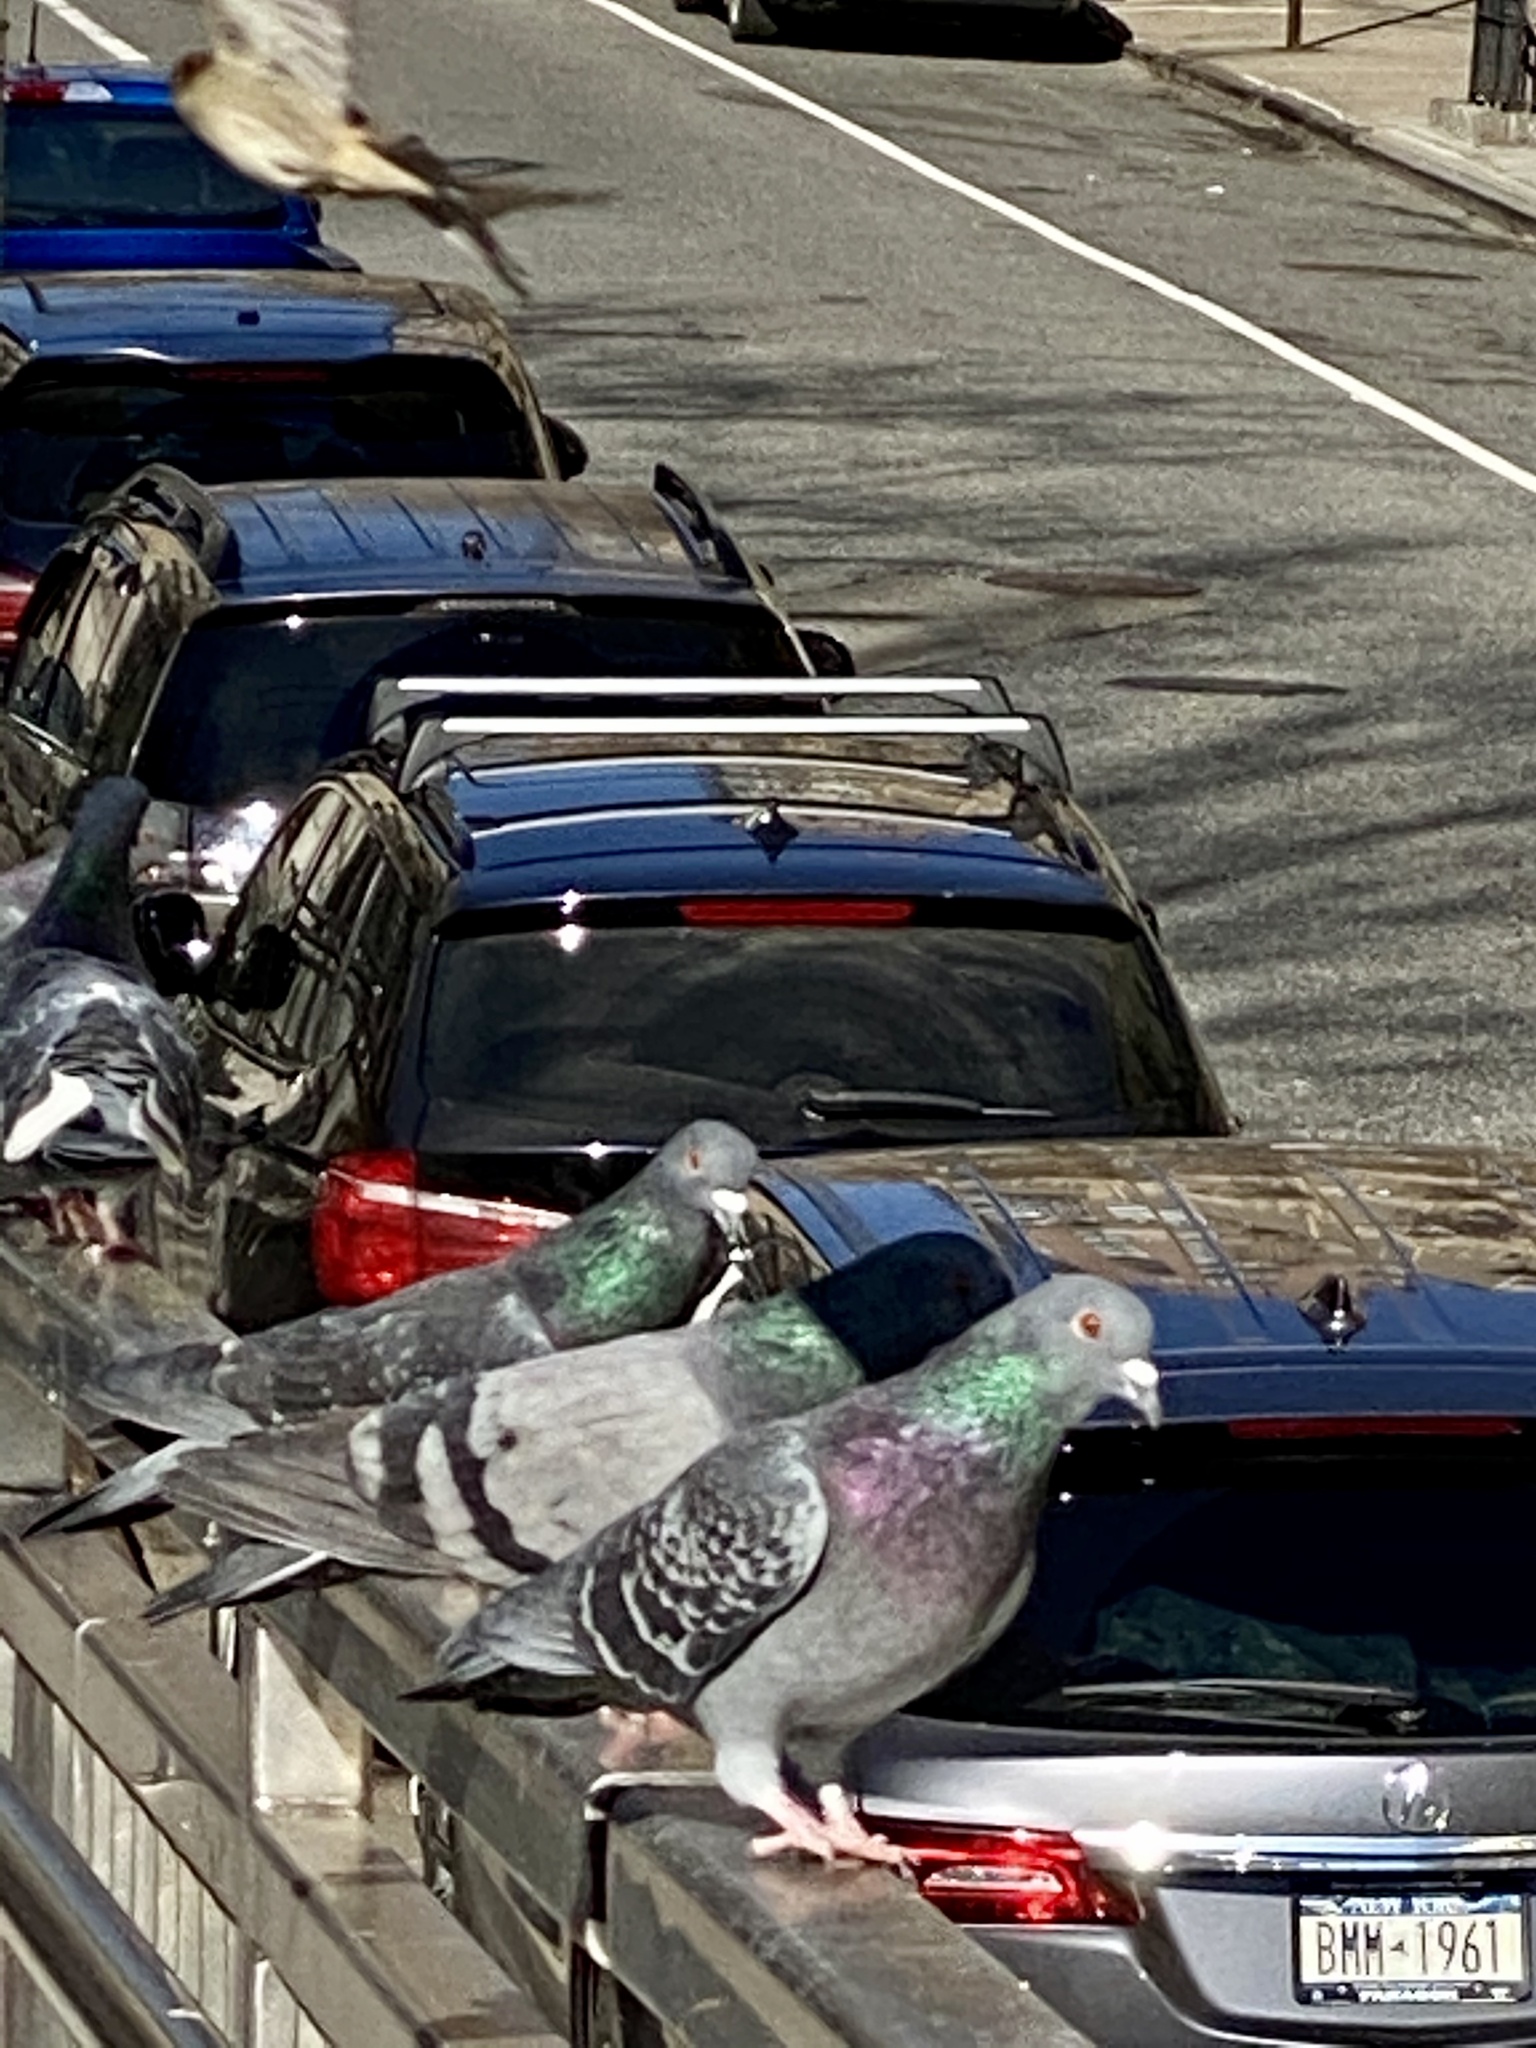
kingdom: Animalia
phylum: Chordata
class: Aves
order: Columbiformes
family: Columbidae
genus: Columba
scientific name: Columba livia
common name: Rock pigeon
